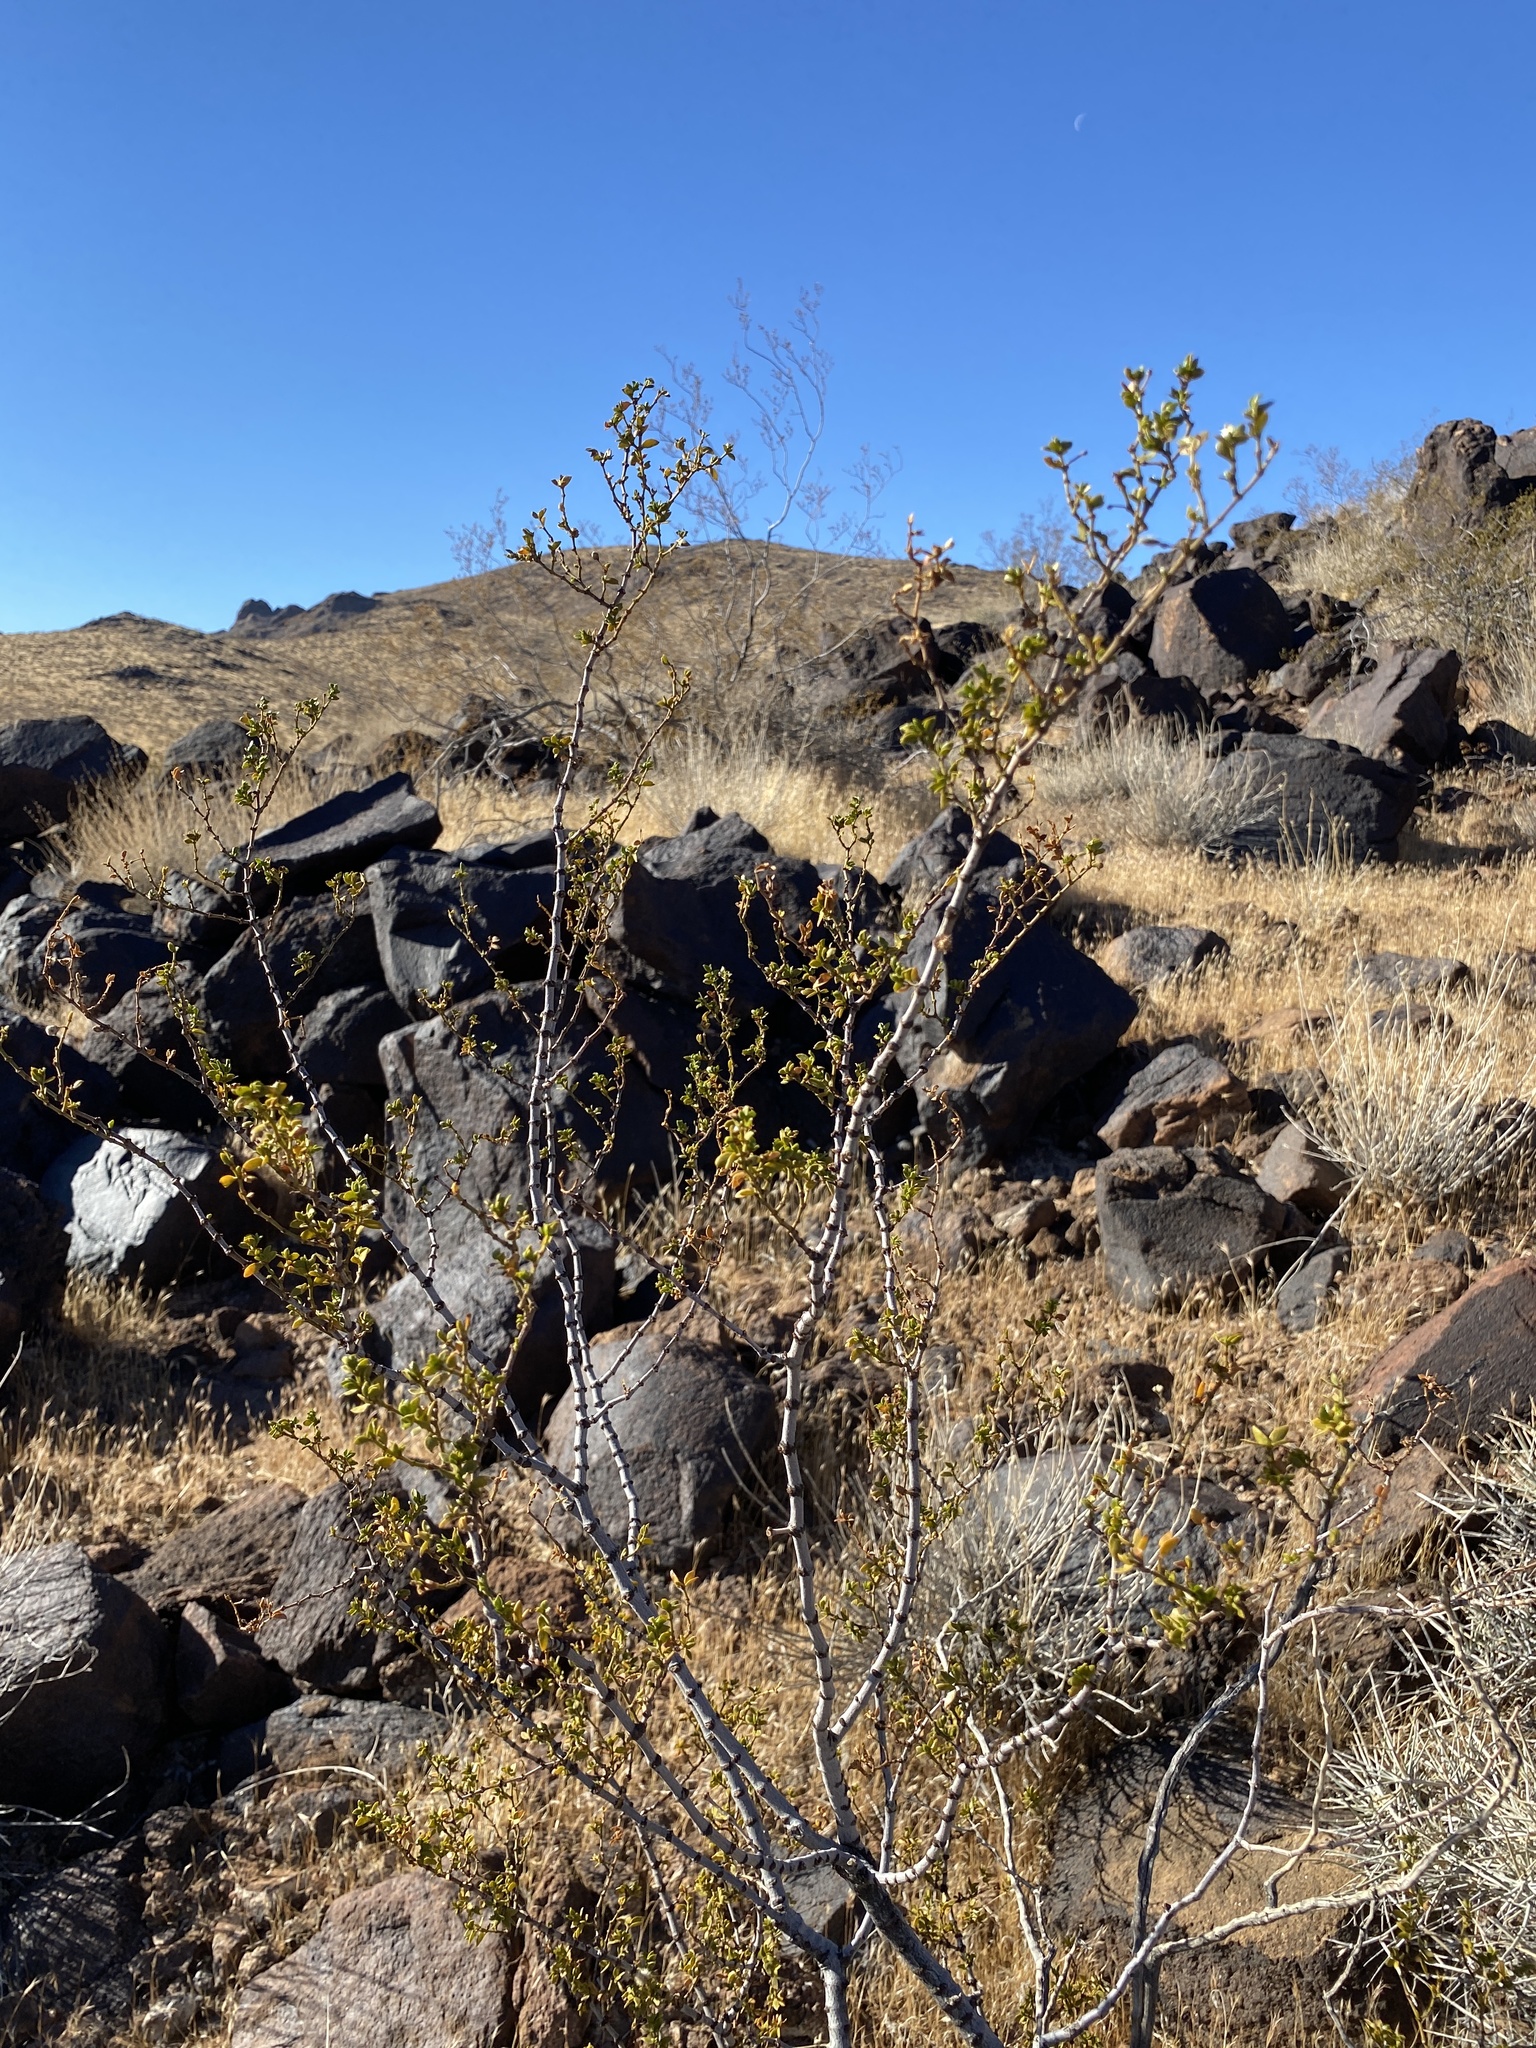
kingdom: Plantae
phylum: Tracheophyta
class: Magnoliopsida
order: Zygophyllales
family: Zygophyllaceae
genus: Larrea
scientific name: Larrea tridentata
